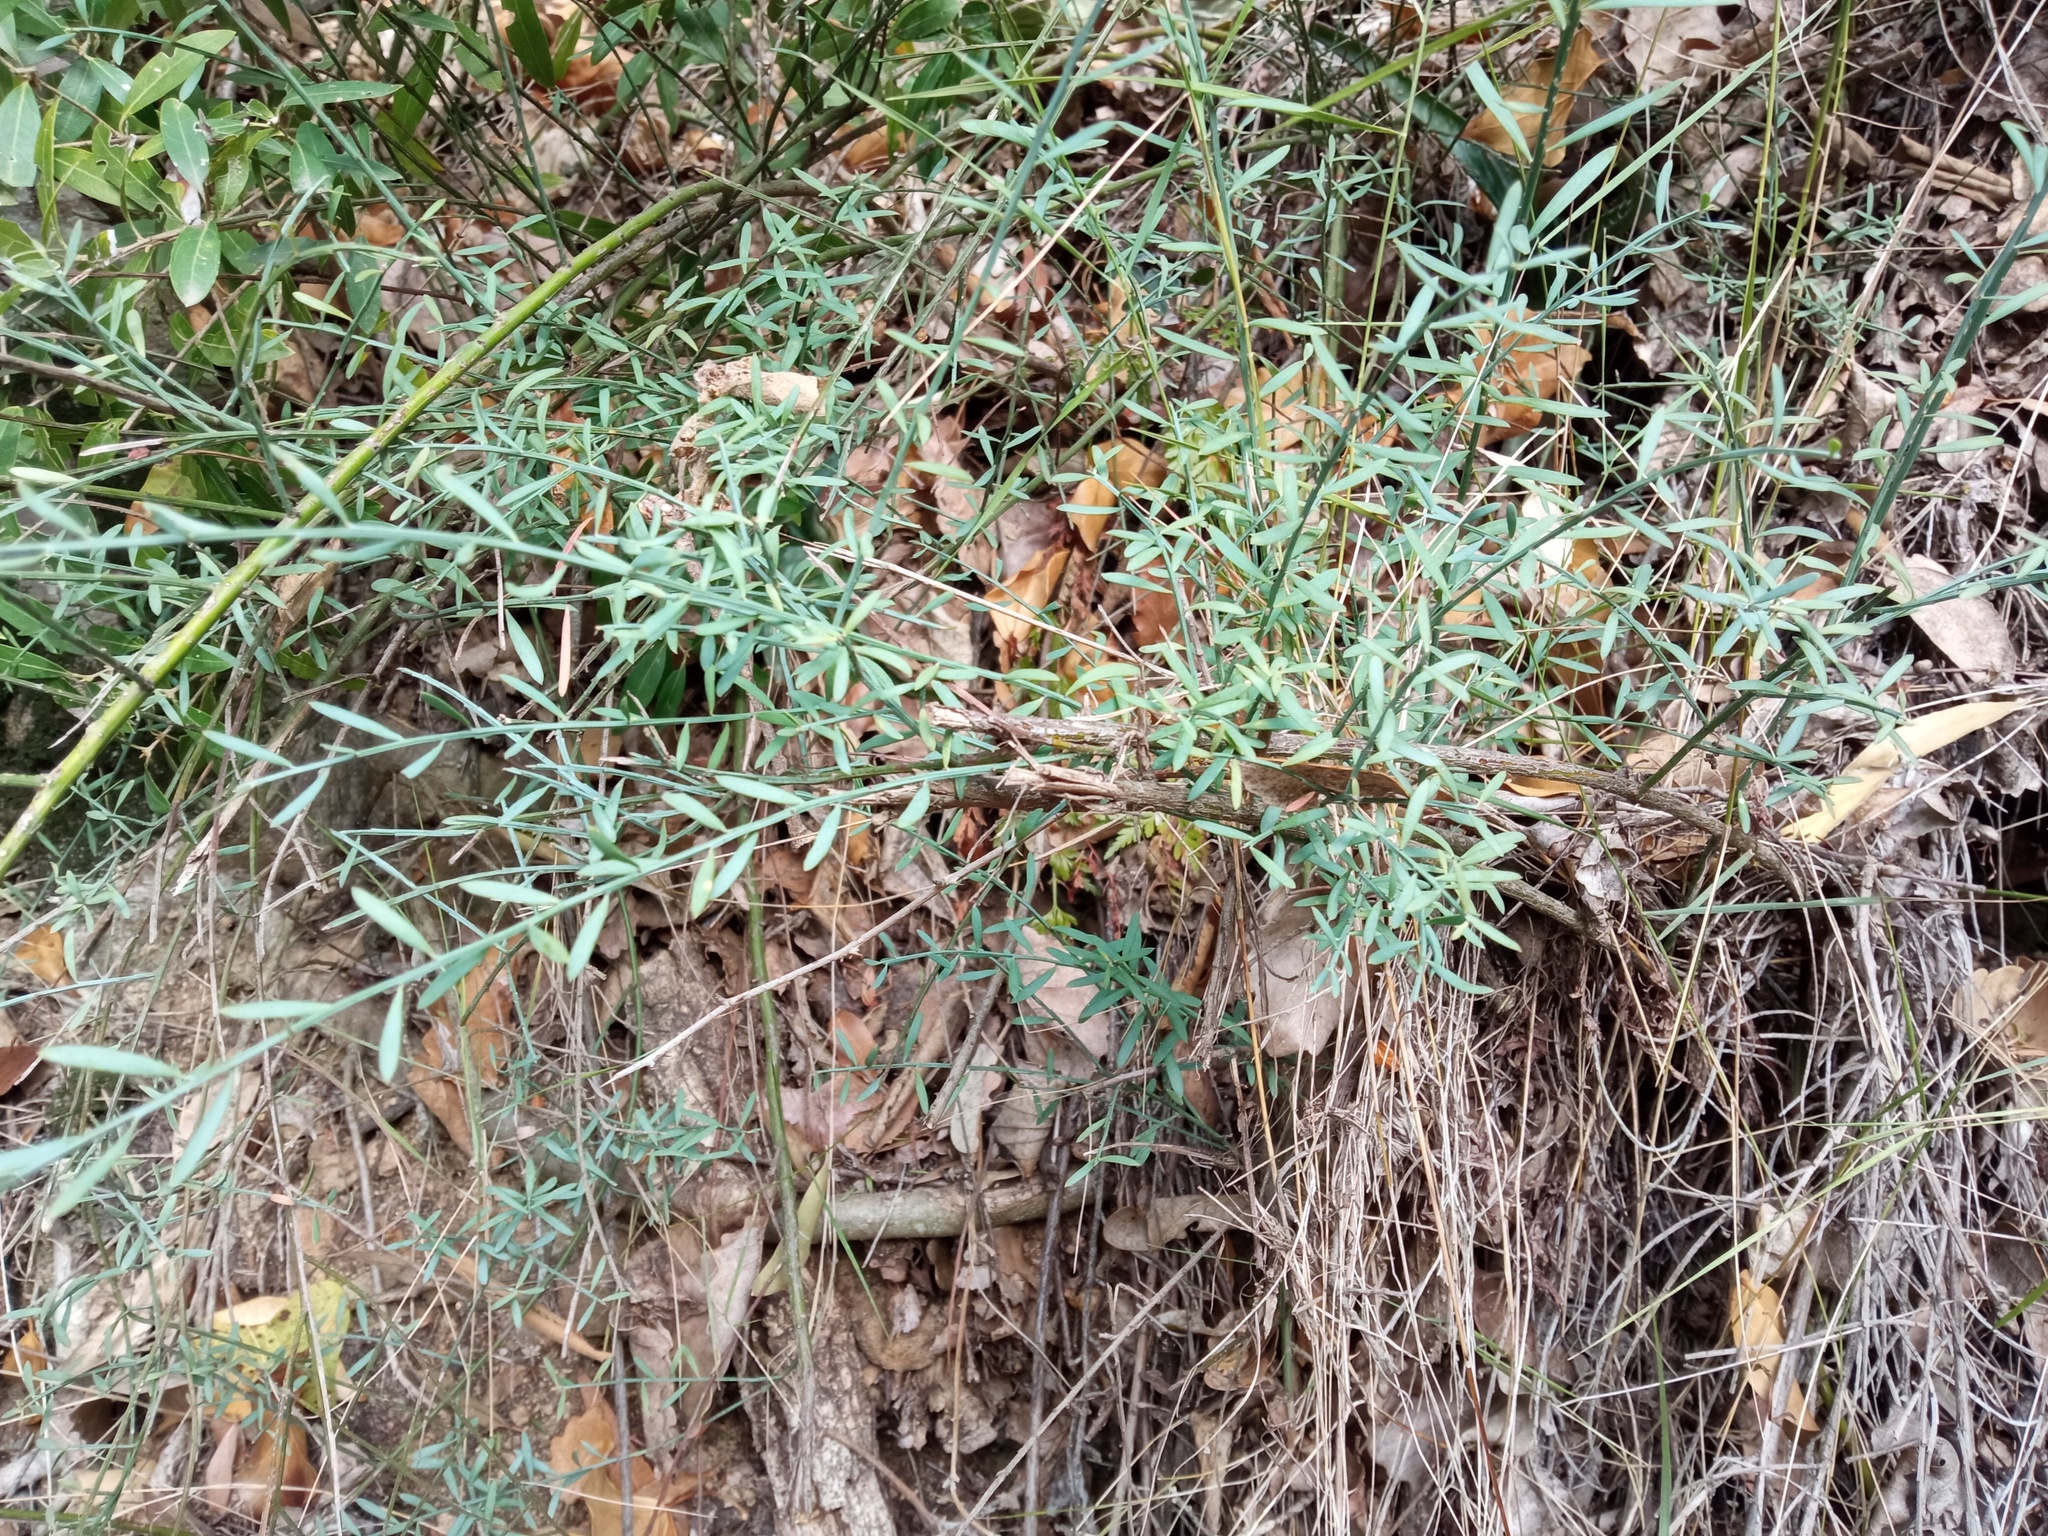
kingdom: Plantae
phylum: Tracheophyta
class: Magnoliopsida
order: Santalales
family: Santalaceae
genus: Osyris
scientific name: Osyris alba
